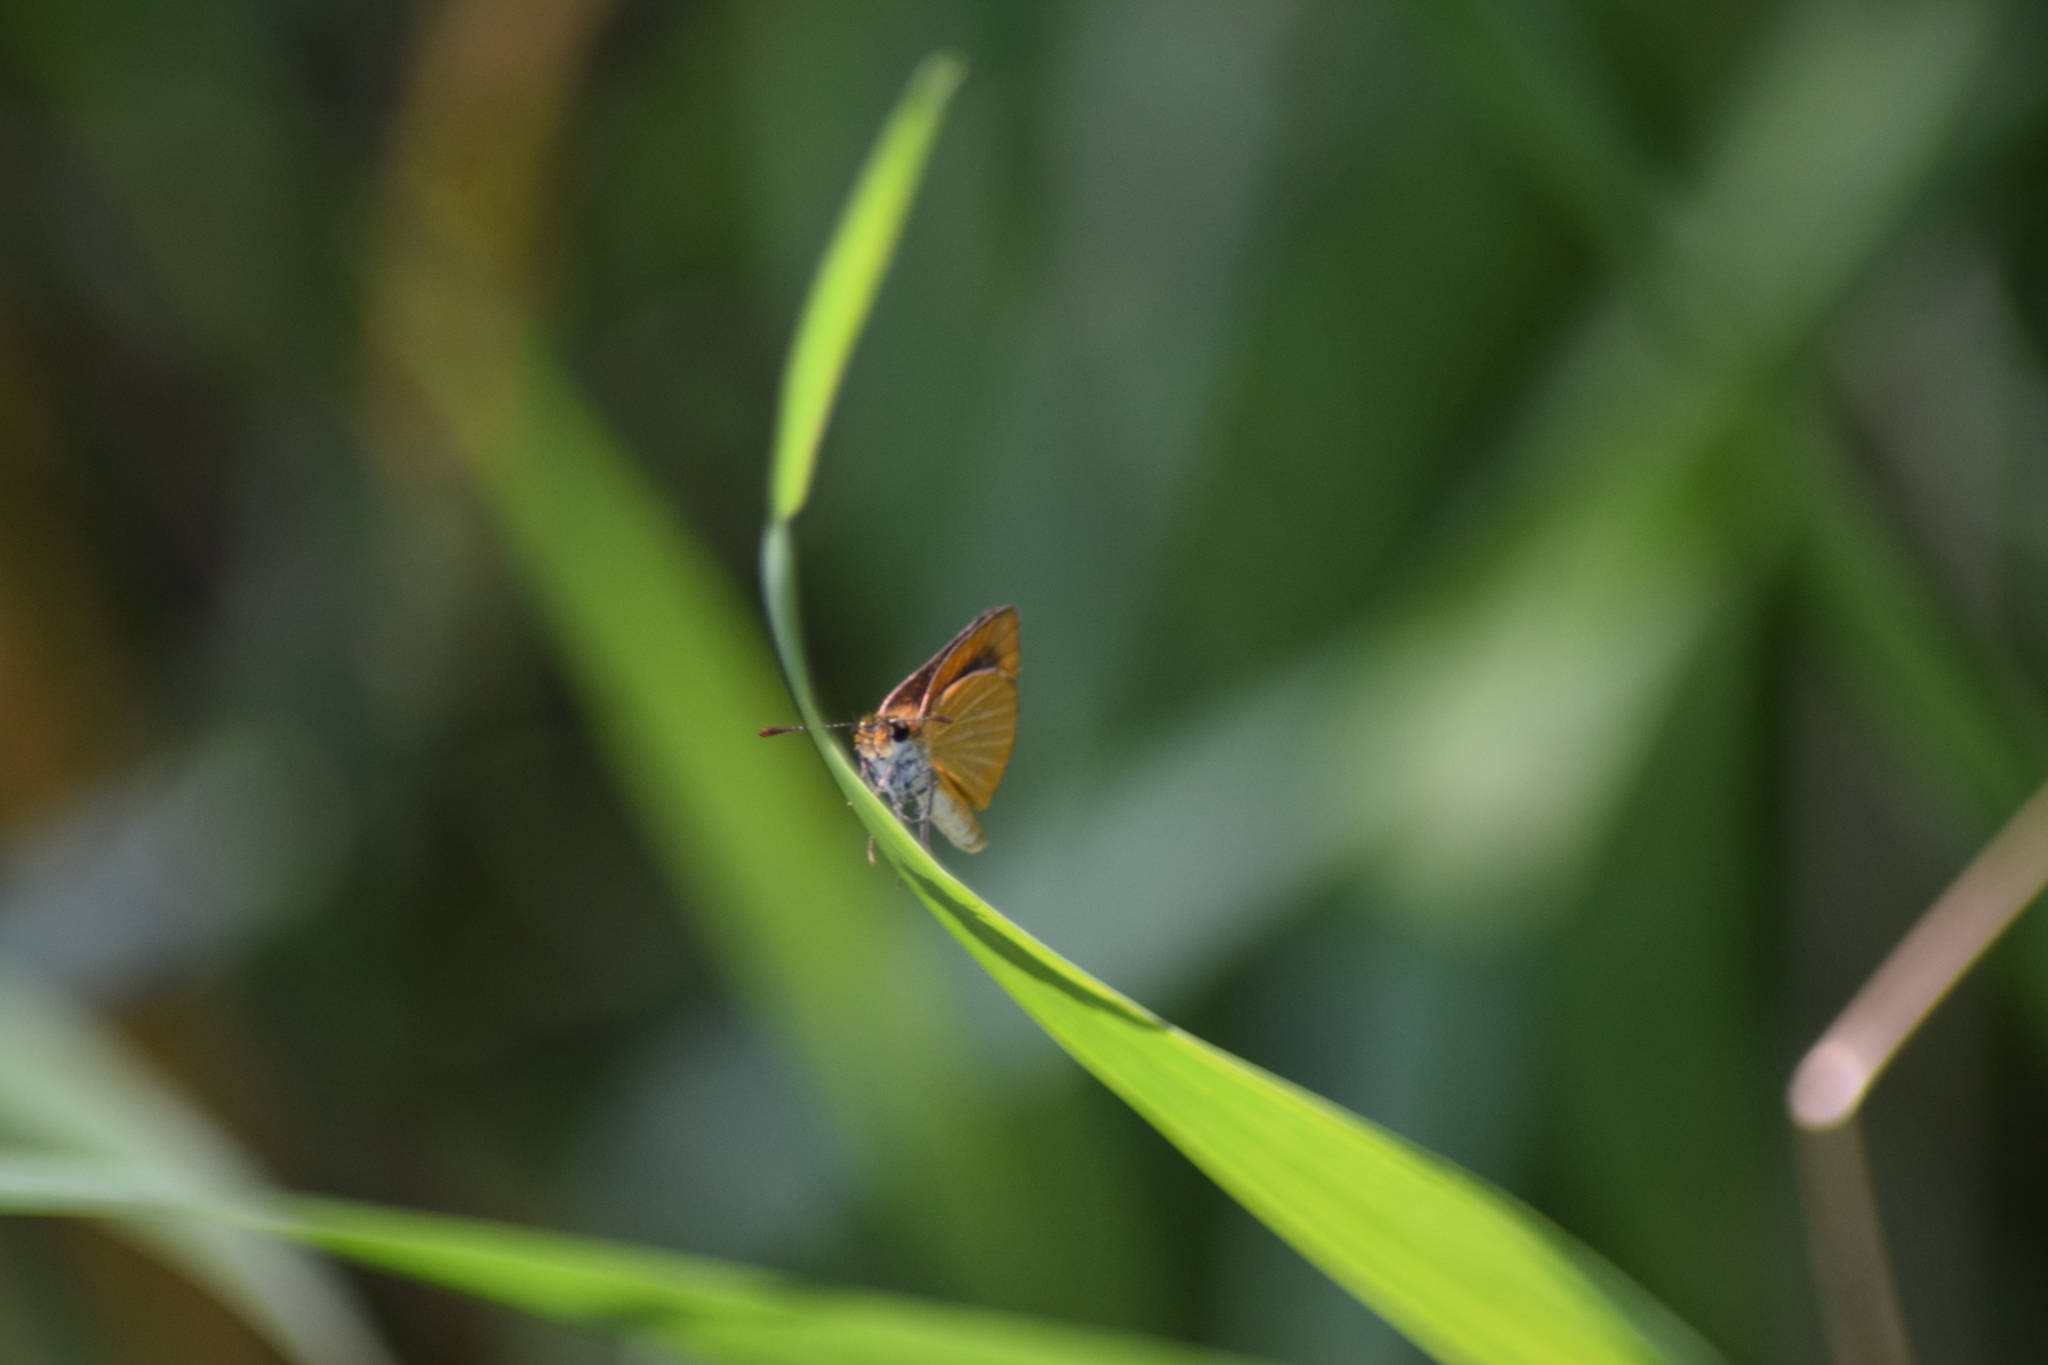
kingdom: Animalia
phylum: Arthropoda
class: Insecta
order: Lepidoptera
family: Hesperiidae
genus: Ancyloxypha
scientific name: Ancyloxypha numitor
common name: Least skipper
